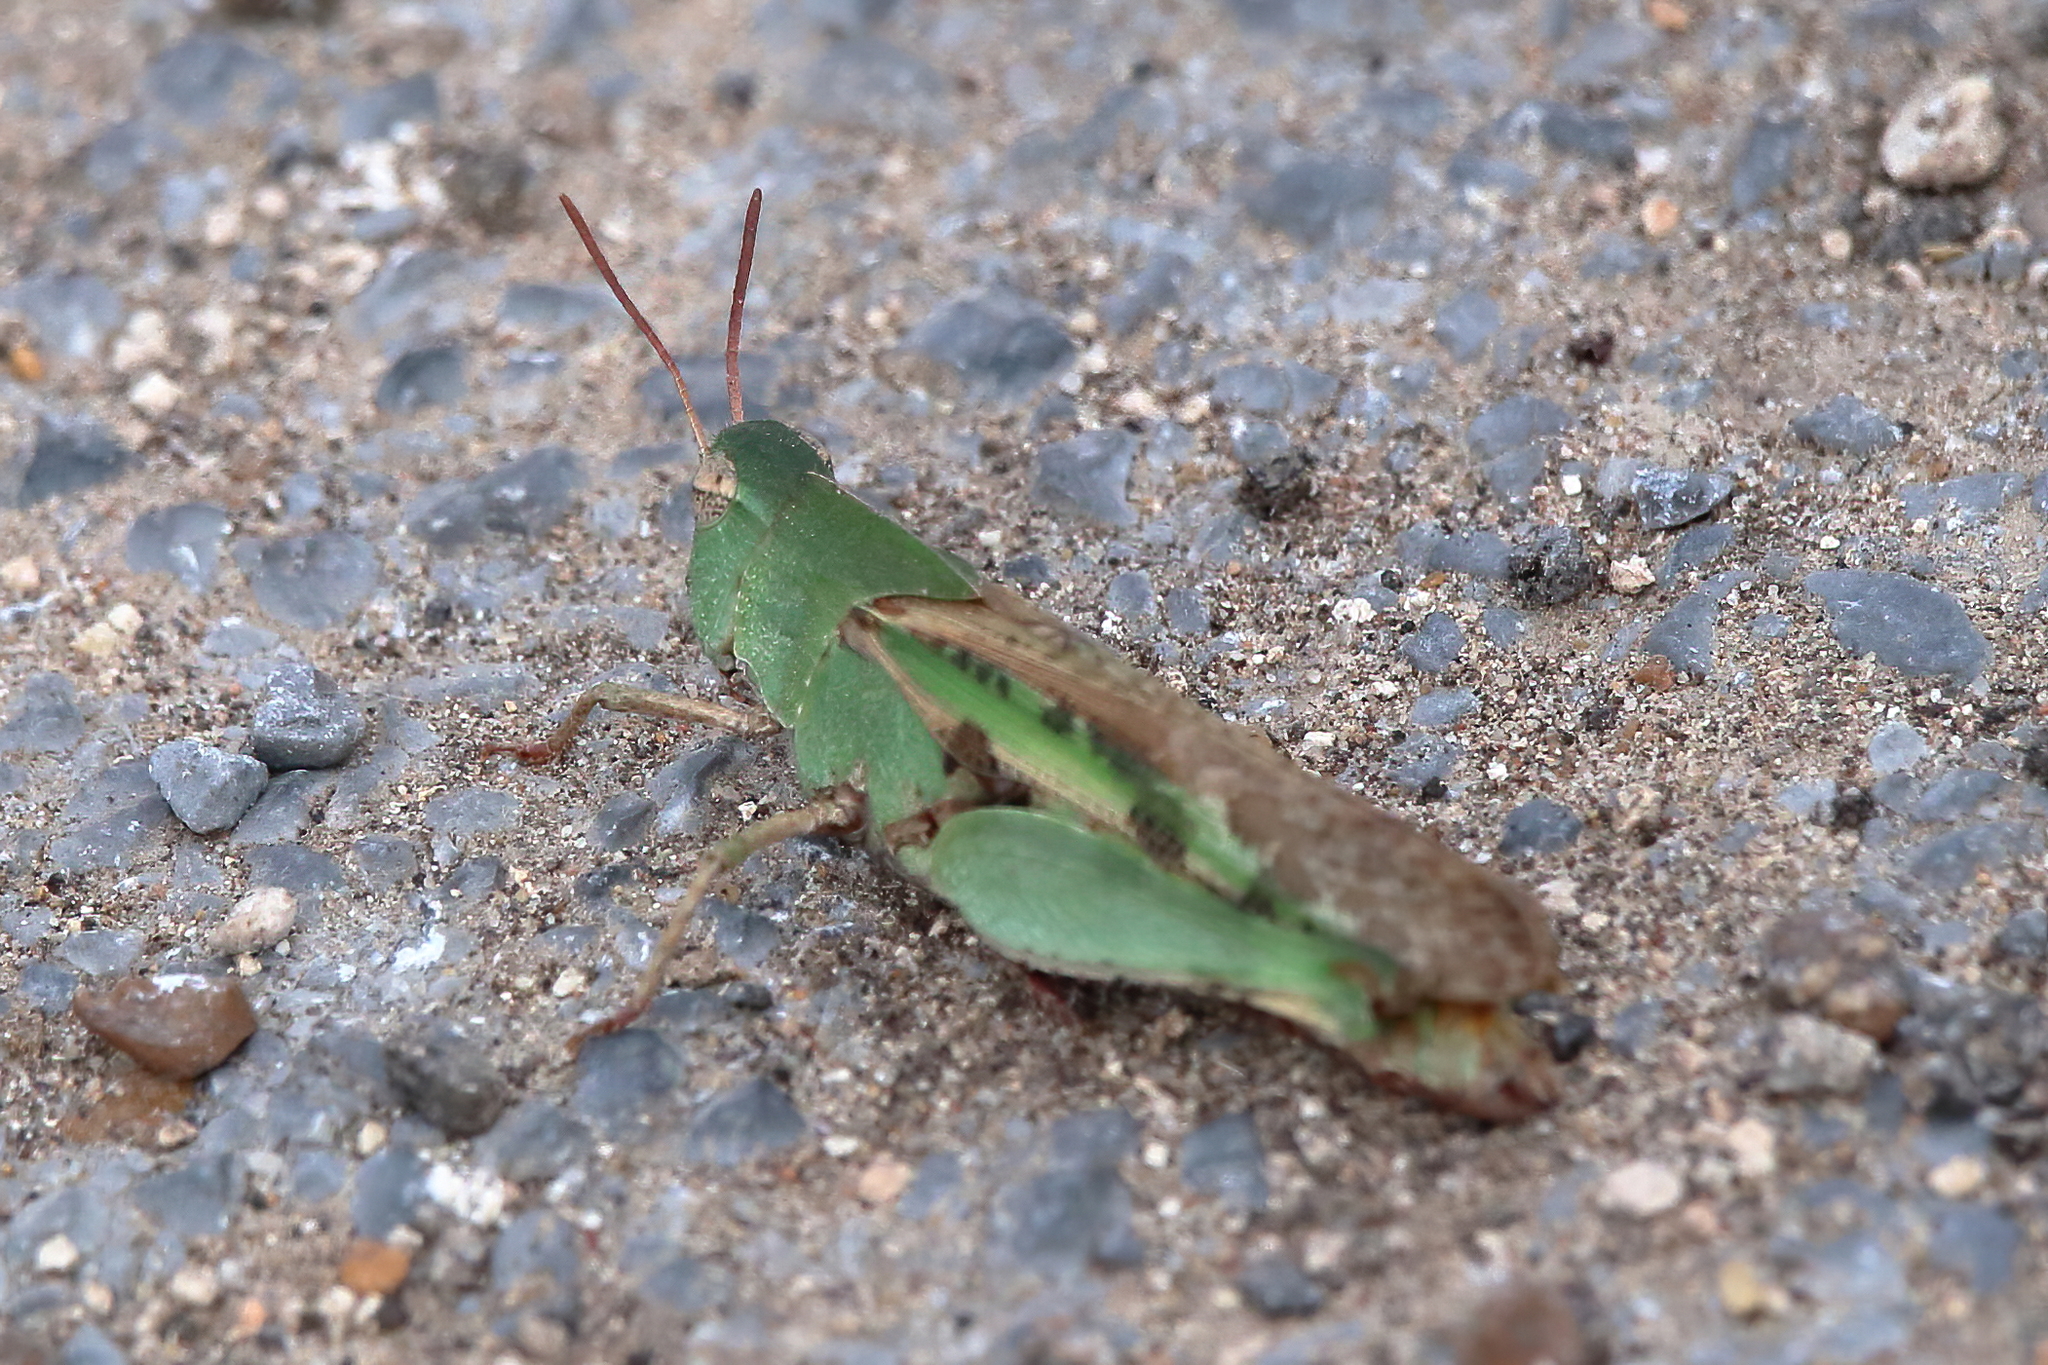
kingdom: Animalia
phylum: Arthropoda
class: Insecta
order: Orthoptera
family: Acrididae
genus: Chortophaga
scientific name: Chortophaga viridifasciata
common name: Green-striped grasshopper
